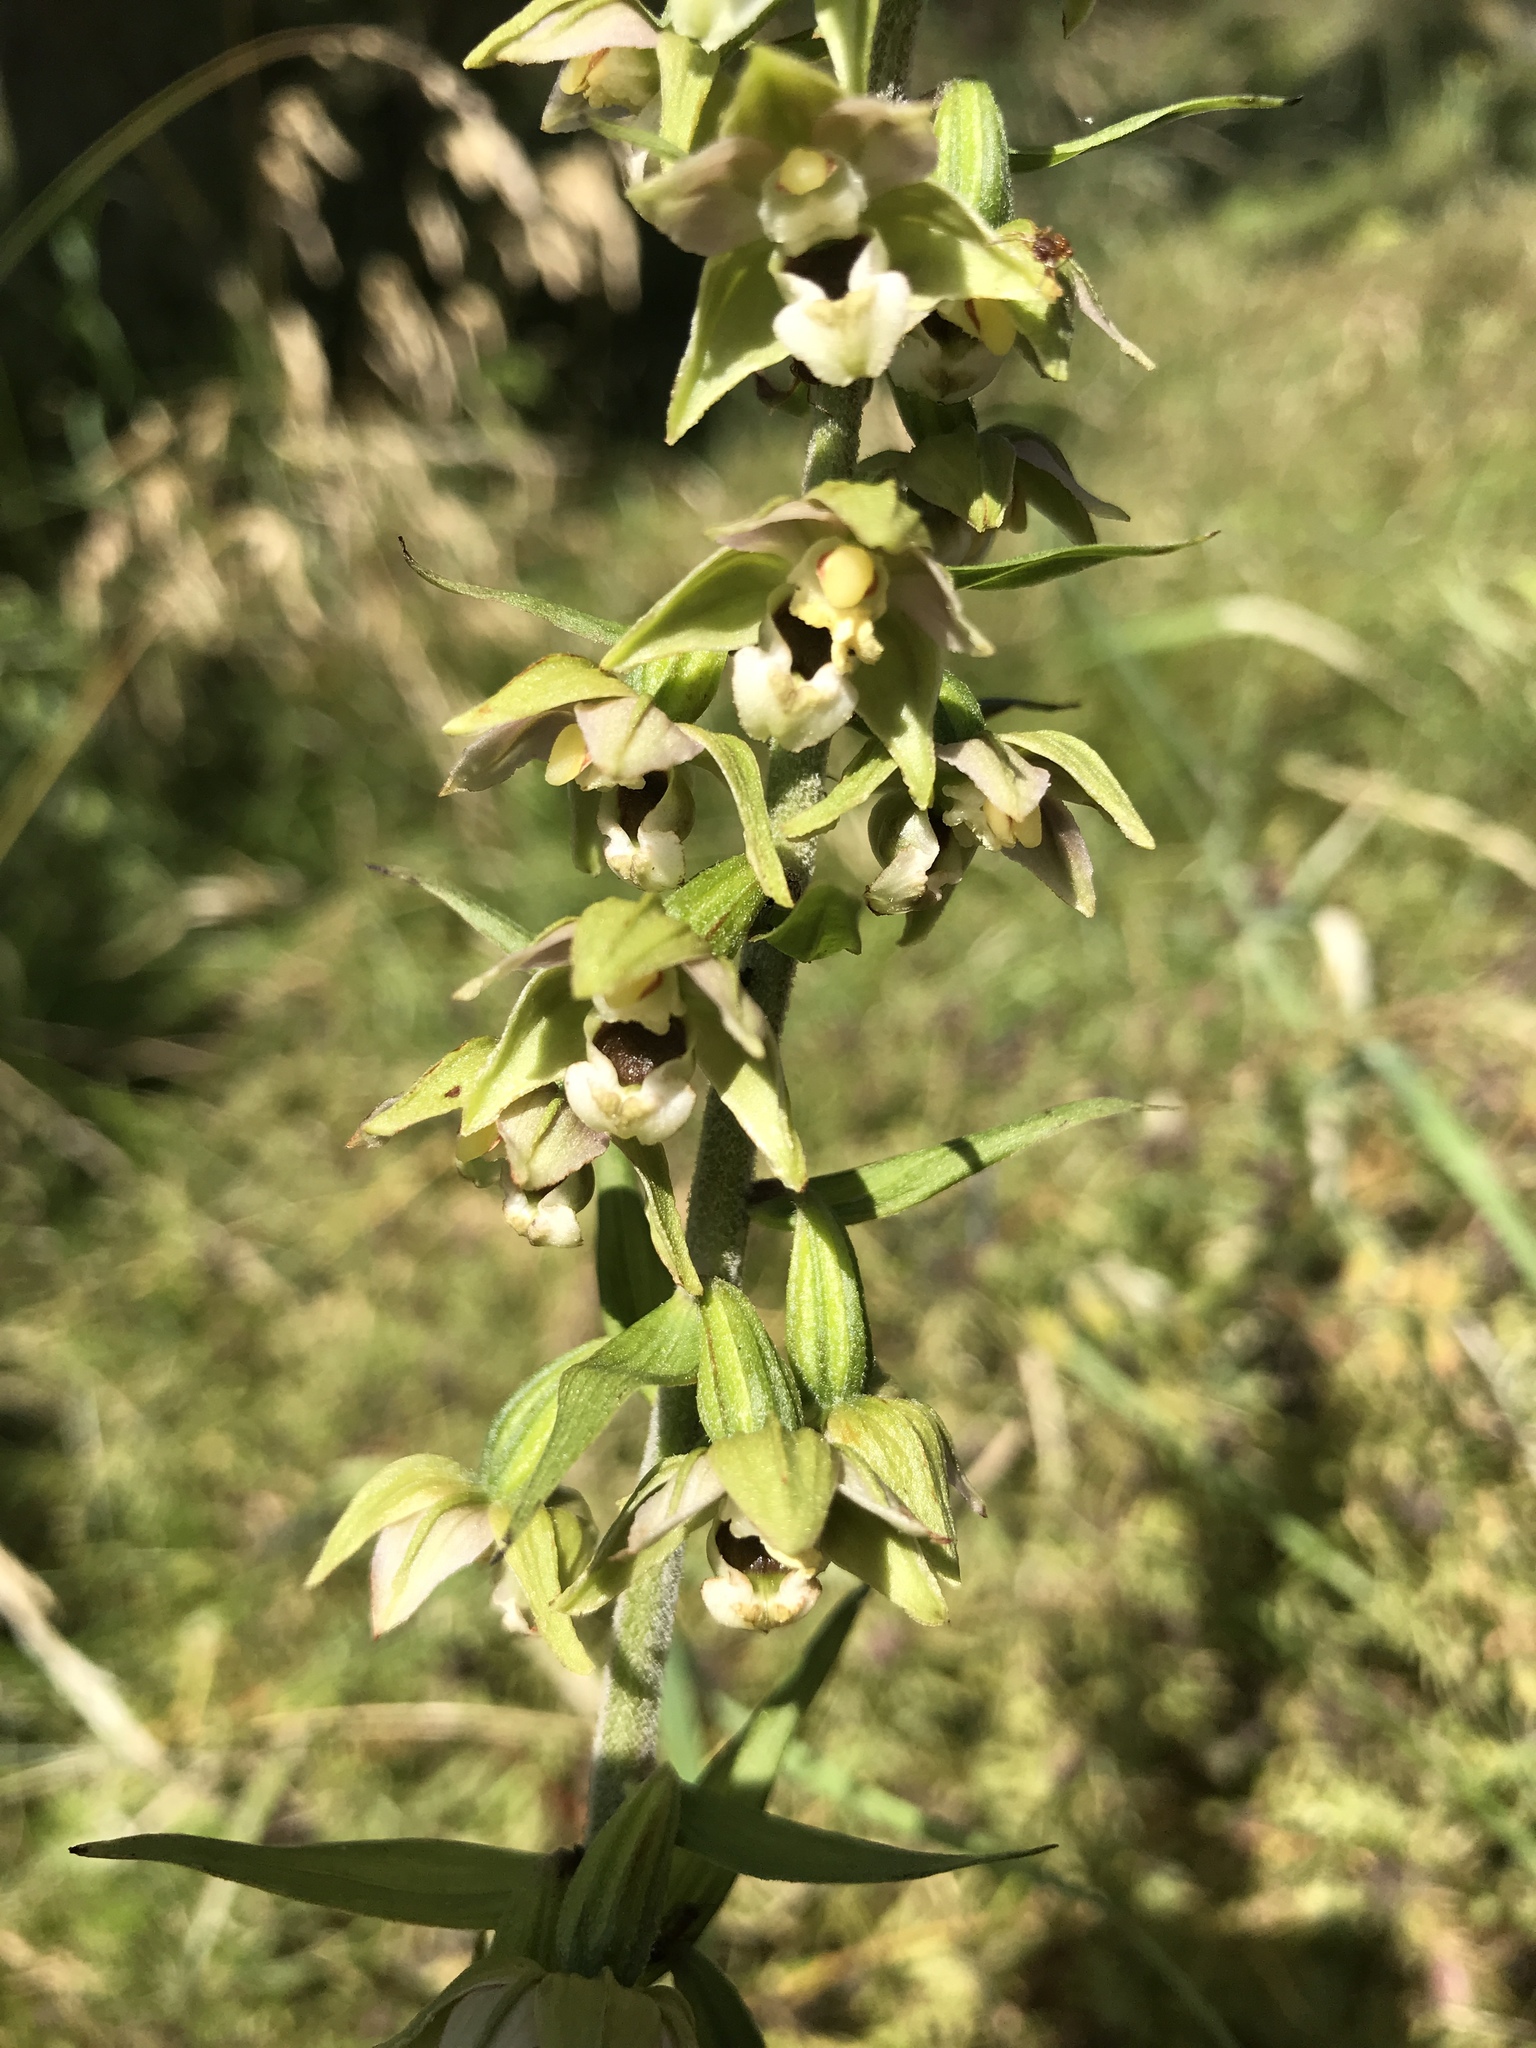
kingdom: Plantae
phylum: Tracheophyta
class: Liliopsida
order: Asparagales
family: Orchidaceae
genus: Epipactis
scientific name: Epipactis helleborine
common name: Broad-leaved helleborine
